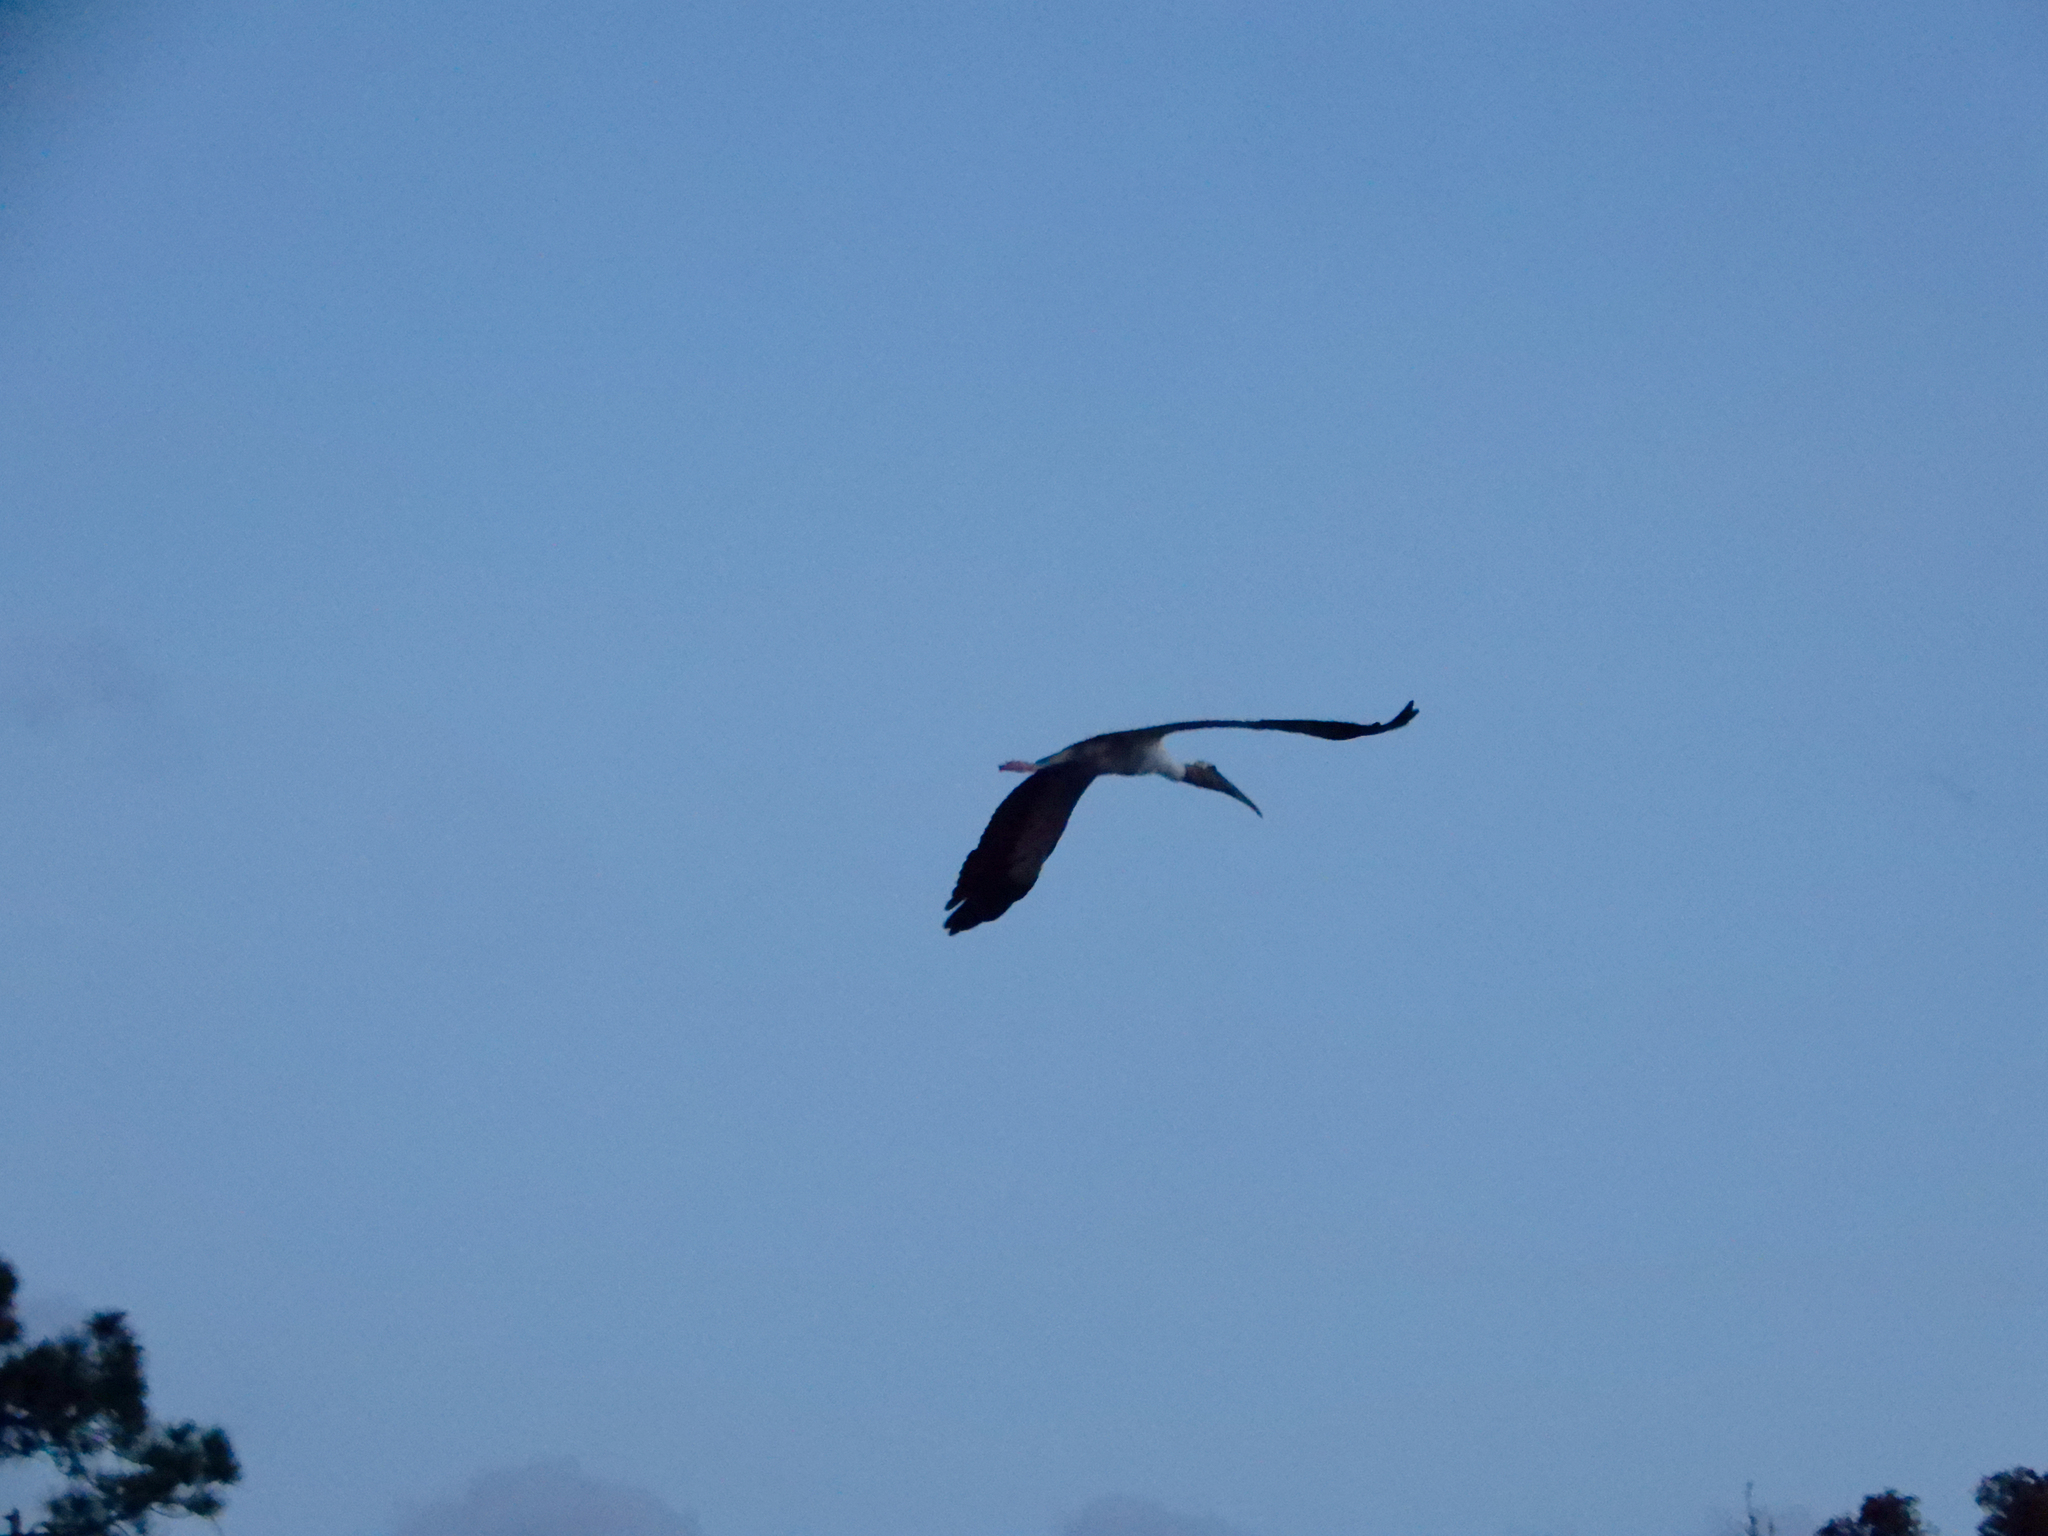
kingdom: Animalia
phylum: Chordata
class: Aves
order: Ciconiiformes
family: Ciconiidae
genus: Mycteria
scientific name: Mycteria americana
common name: Wood stork
